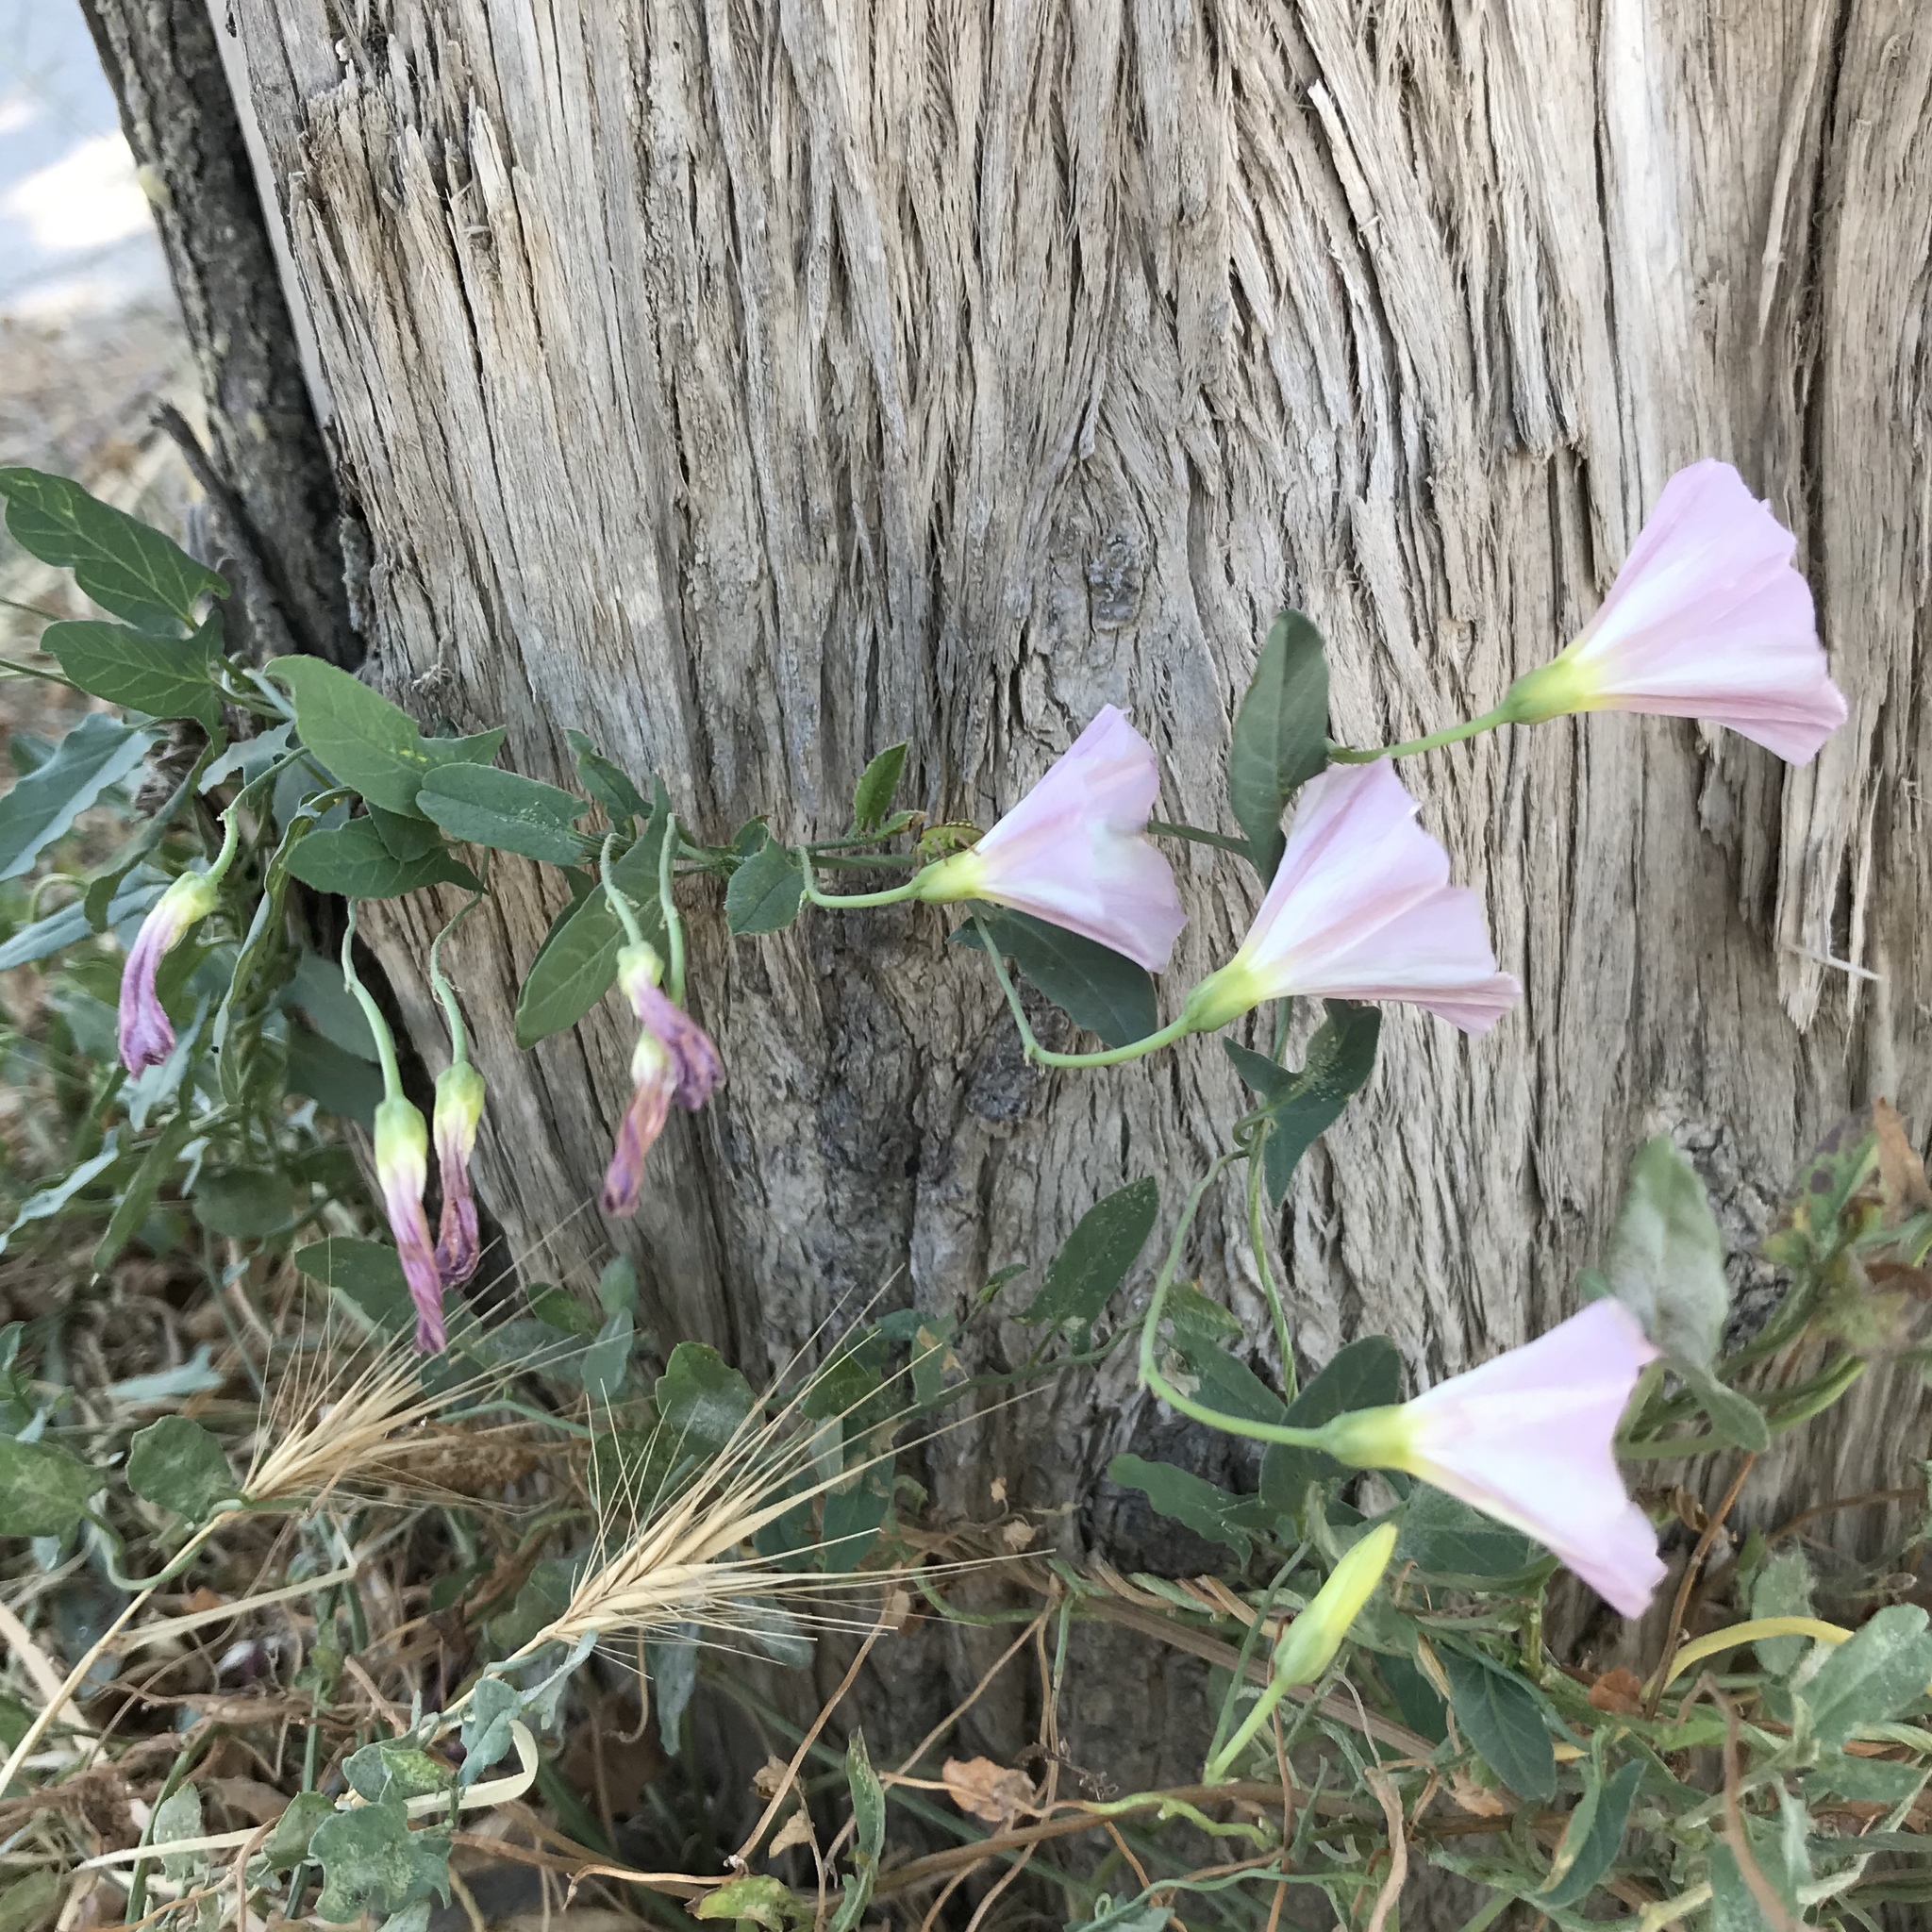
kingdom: Plantae
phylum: Tracheophyta
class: Magnoliopsida
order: Solanales
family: Convolvulaceae
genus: Convolvulus
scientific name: Convolvulus arvensis
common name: Field bindweed
